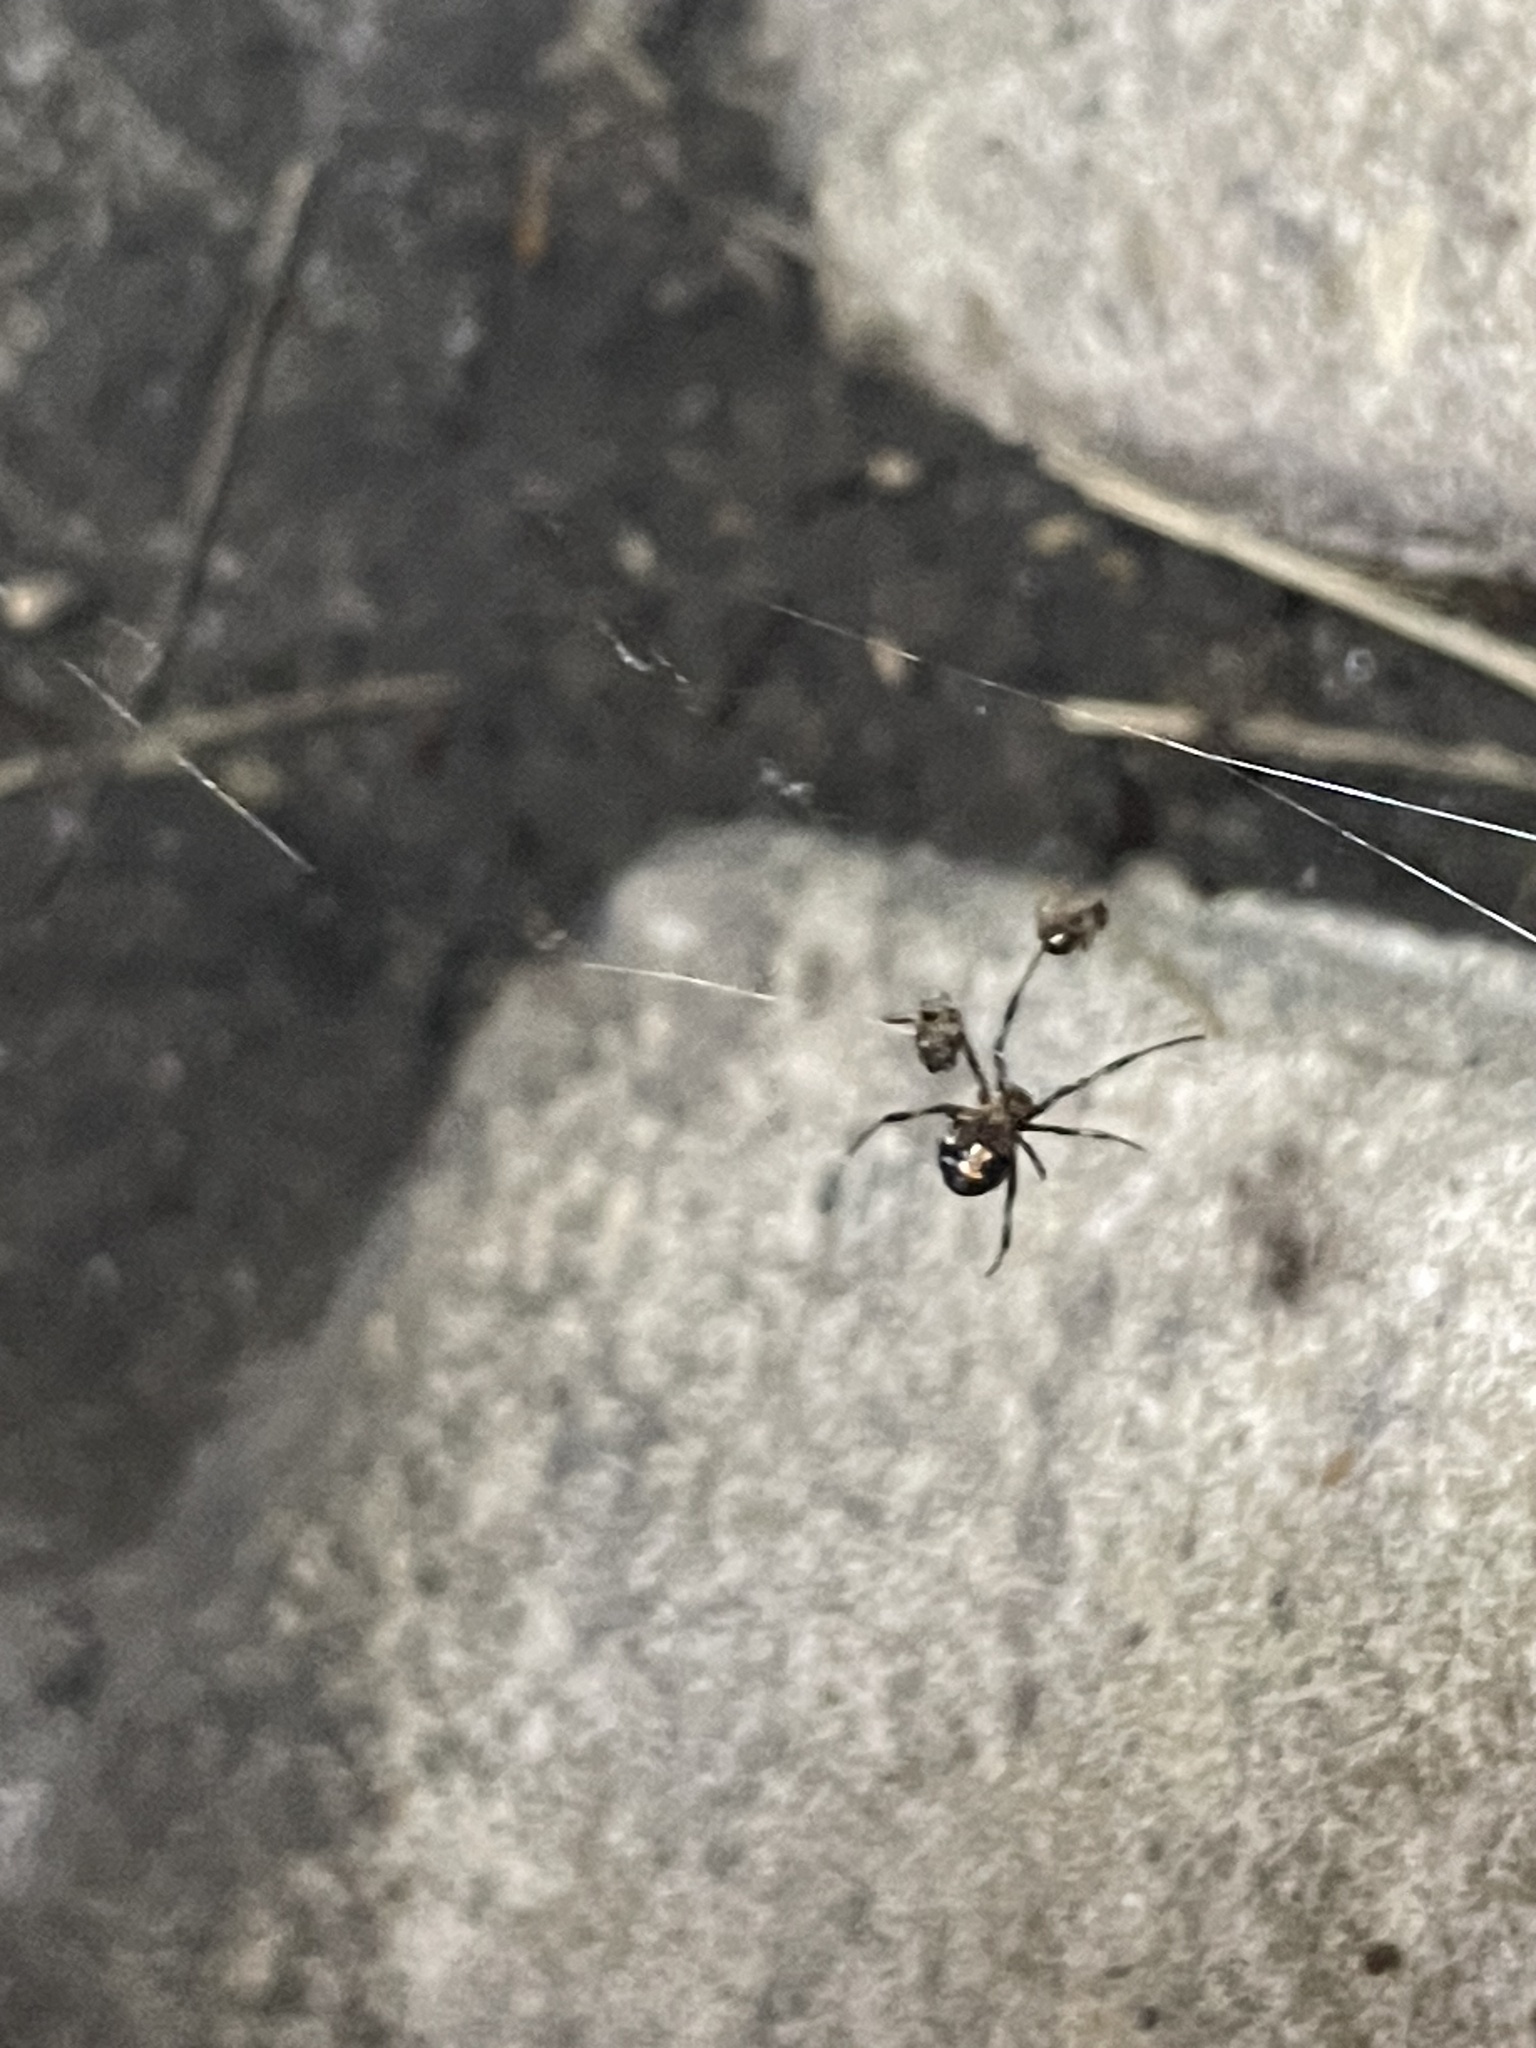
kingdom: Animalia
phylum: Arthropoda
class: Arachnida
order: Araneae
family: Theridiidae
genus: Latrodectus
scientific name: Latrodectus mactans
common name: Cobweb spiders
